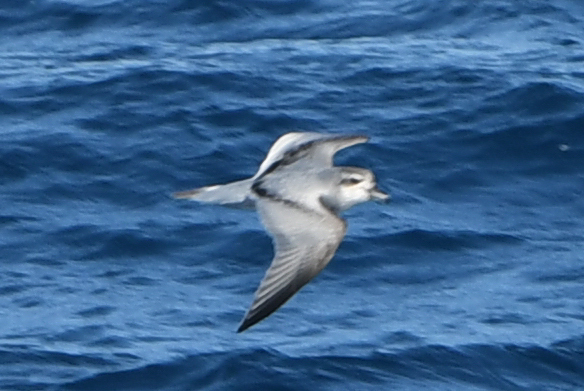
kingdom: Animalia
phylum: Chordata
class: Aves
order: Procellariiformes
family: Procellariidae
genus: Pachyptila
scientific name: Pachyptila vittata
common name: Broad-billed prion
